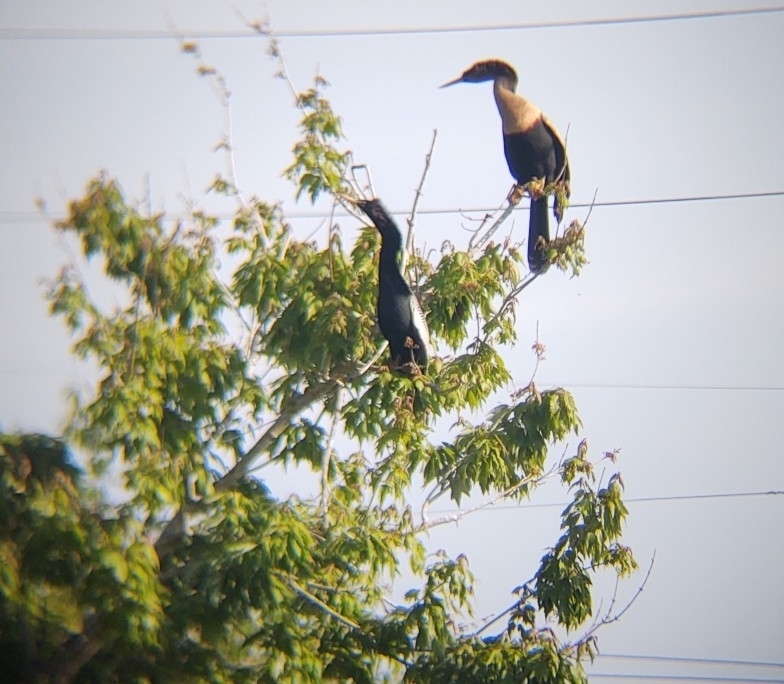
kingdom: Animalia
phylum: Chordata
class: Aves
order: Suliformes
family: Anhingidae
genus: Anhinga
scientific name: Anhinga anhinga
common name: Anhinga
